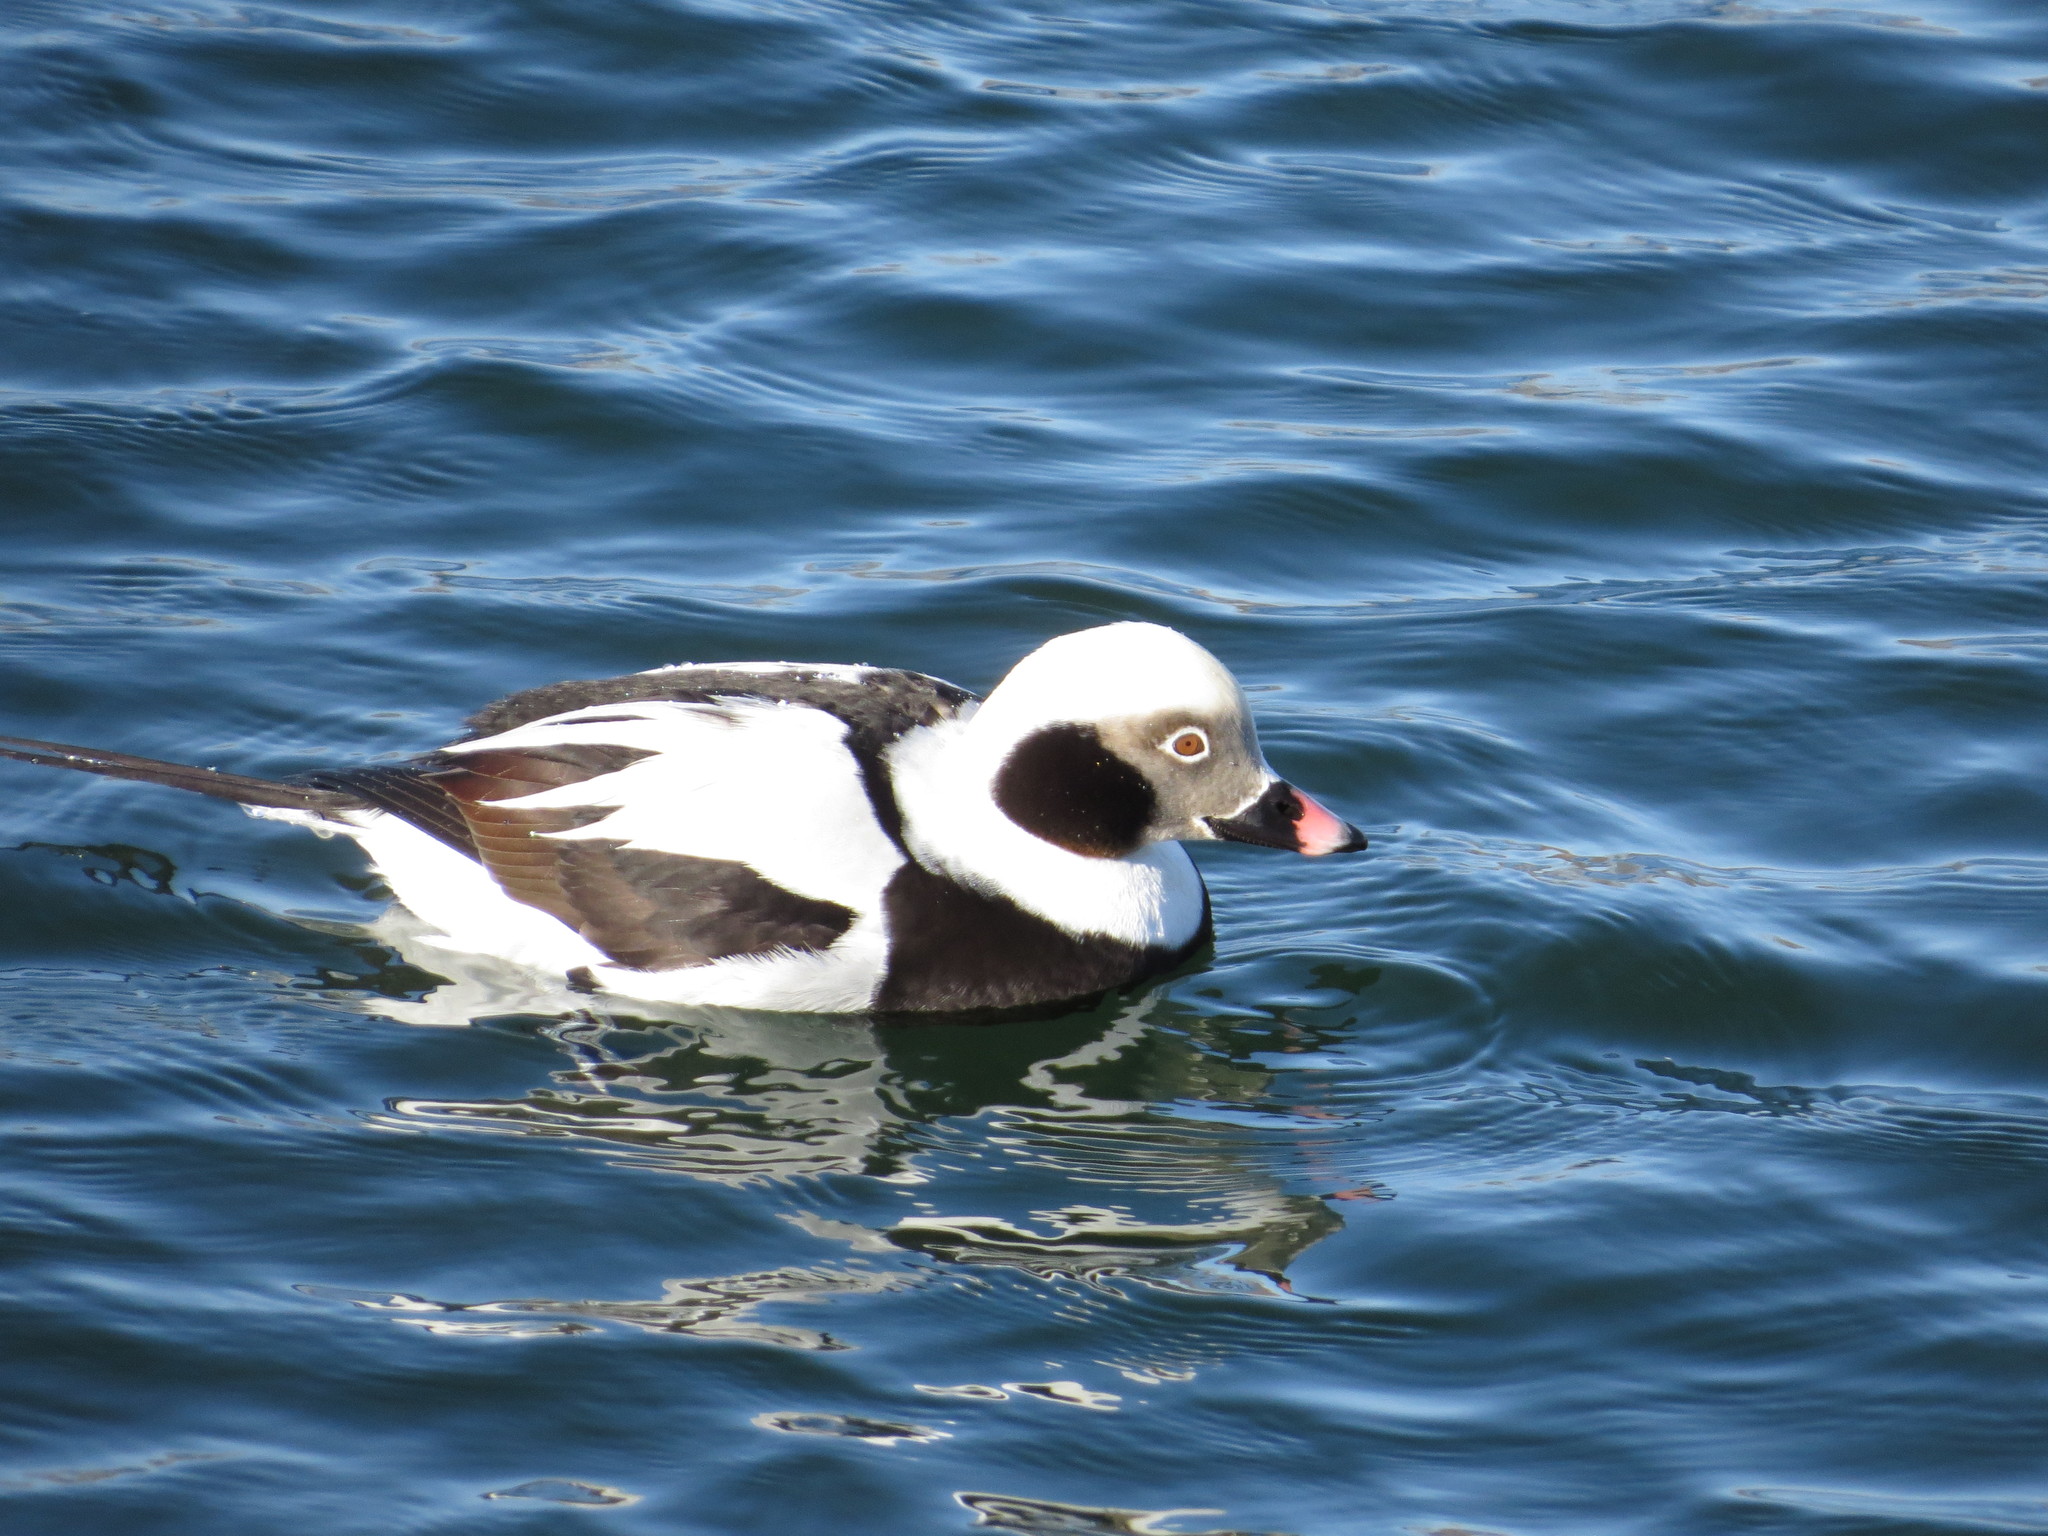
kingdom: Animalia
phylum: Chordata
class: Aves
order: Anseriformes
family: Anatidae
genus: Clangula
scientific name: Clangula hyemalis
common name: Long-tailed duck
